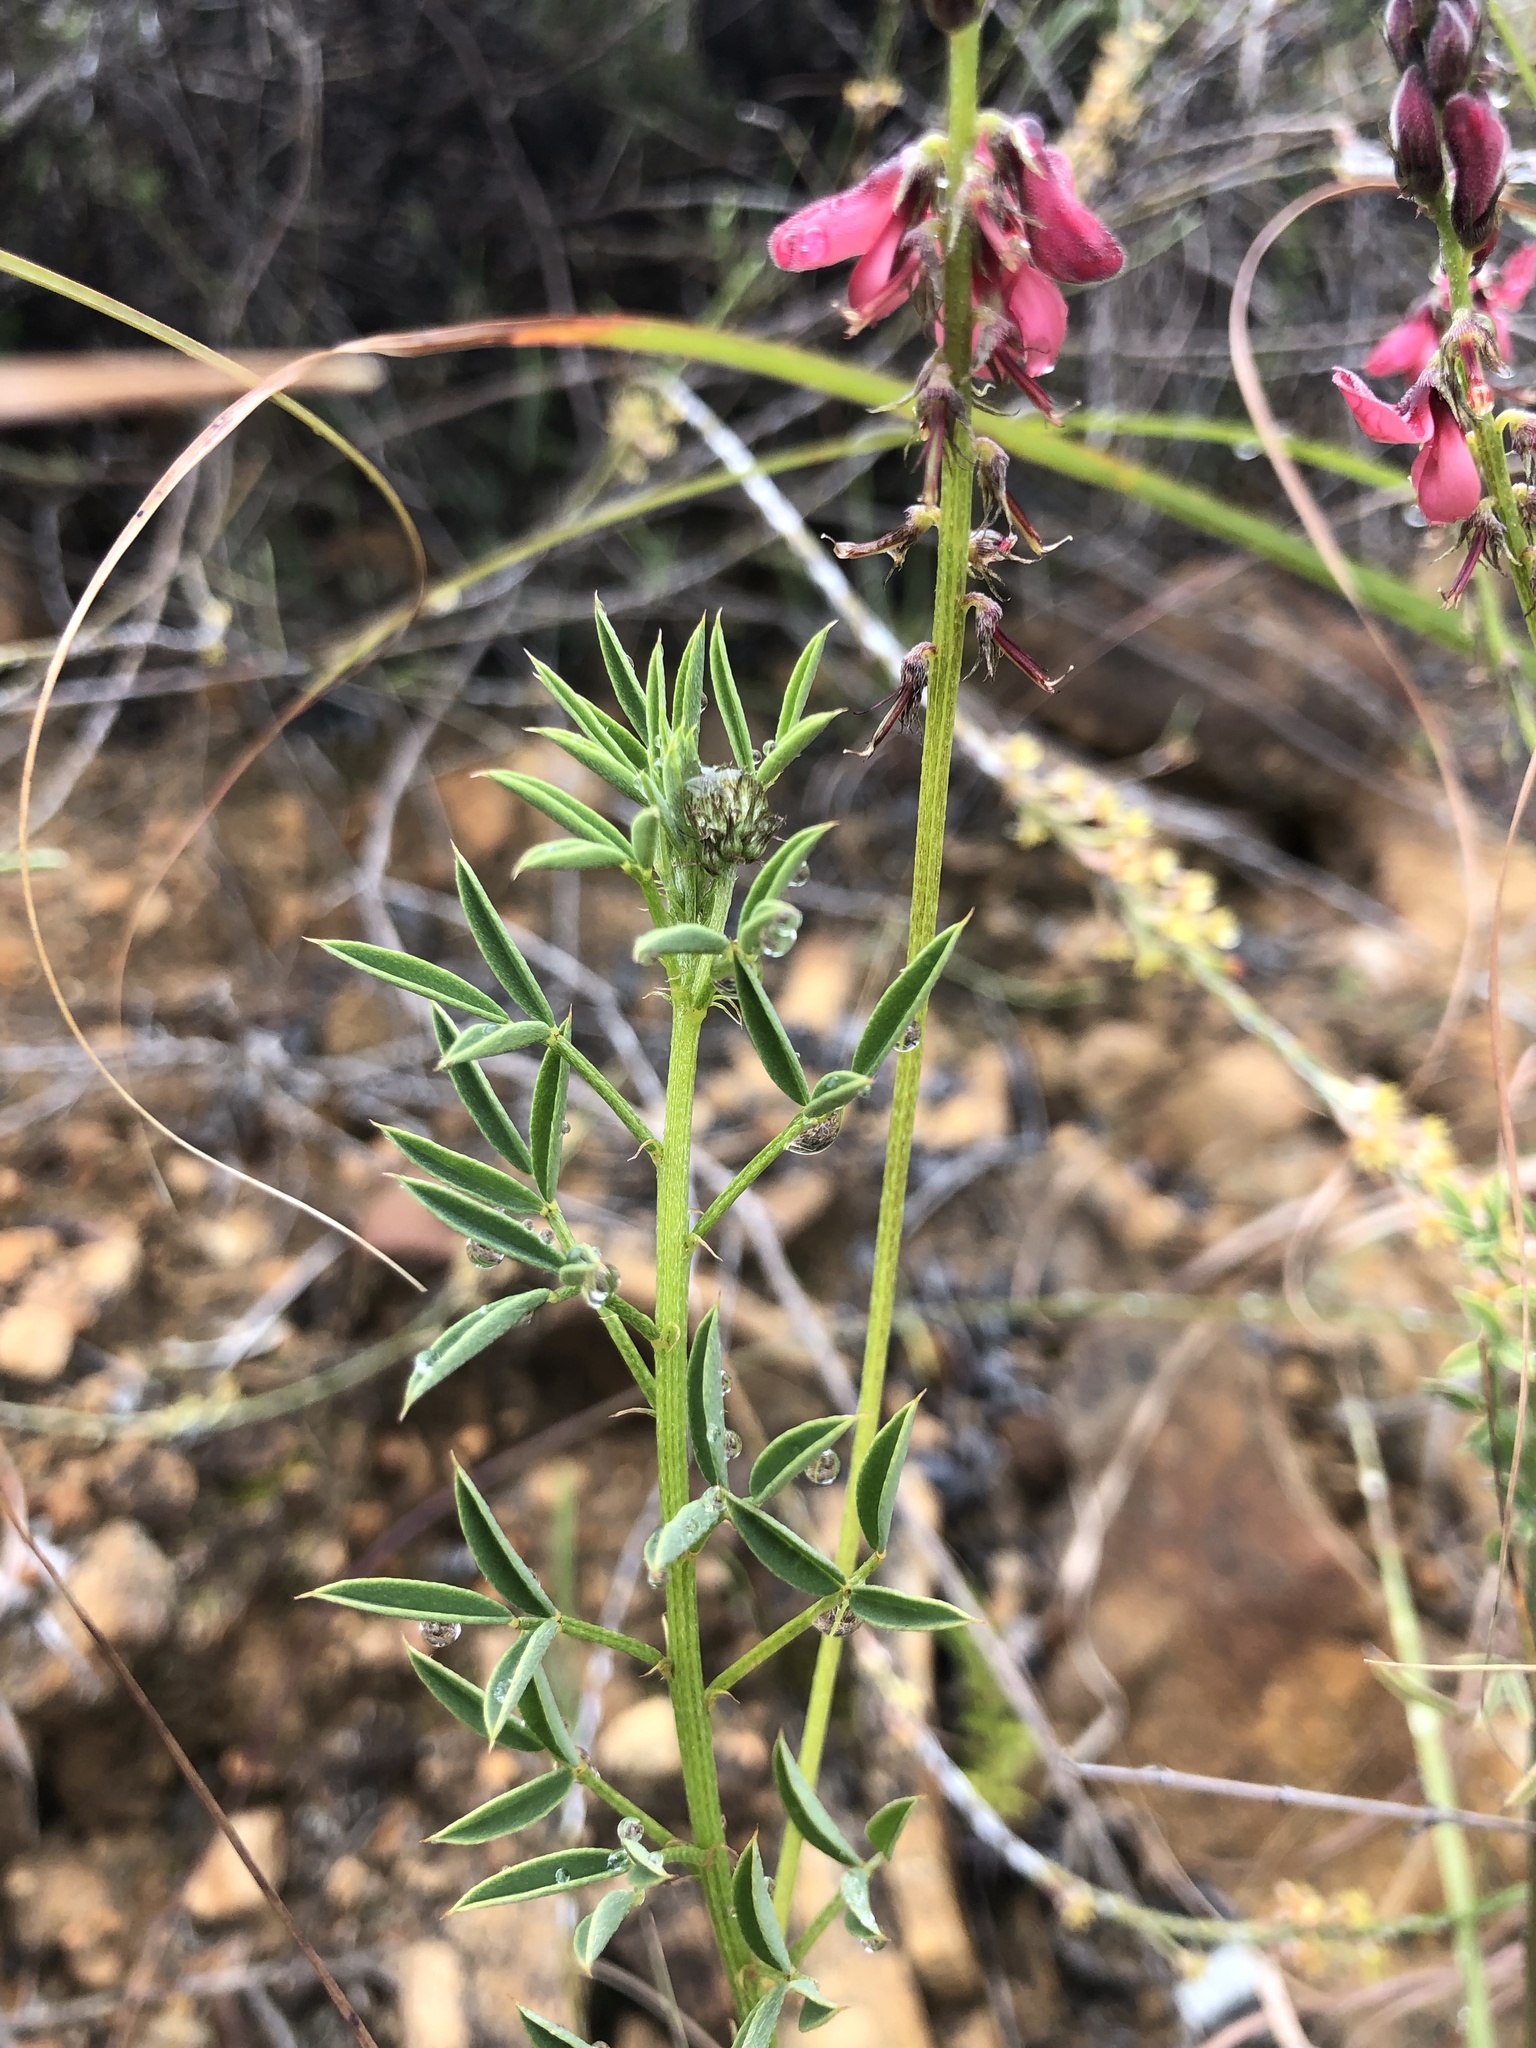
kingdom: Plantae
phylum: Tracheophyta
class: Magnoliopsida
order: Fabales
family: Fabaceae
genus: Indigofera
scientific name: Indigofera heterophylla
